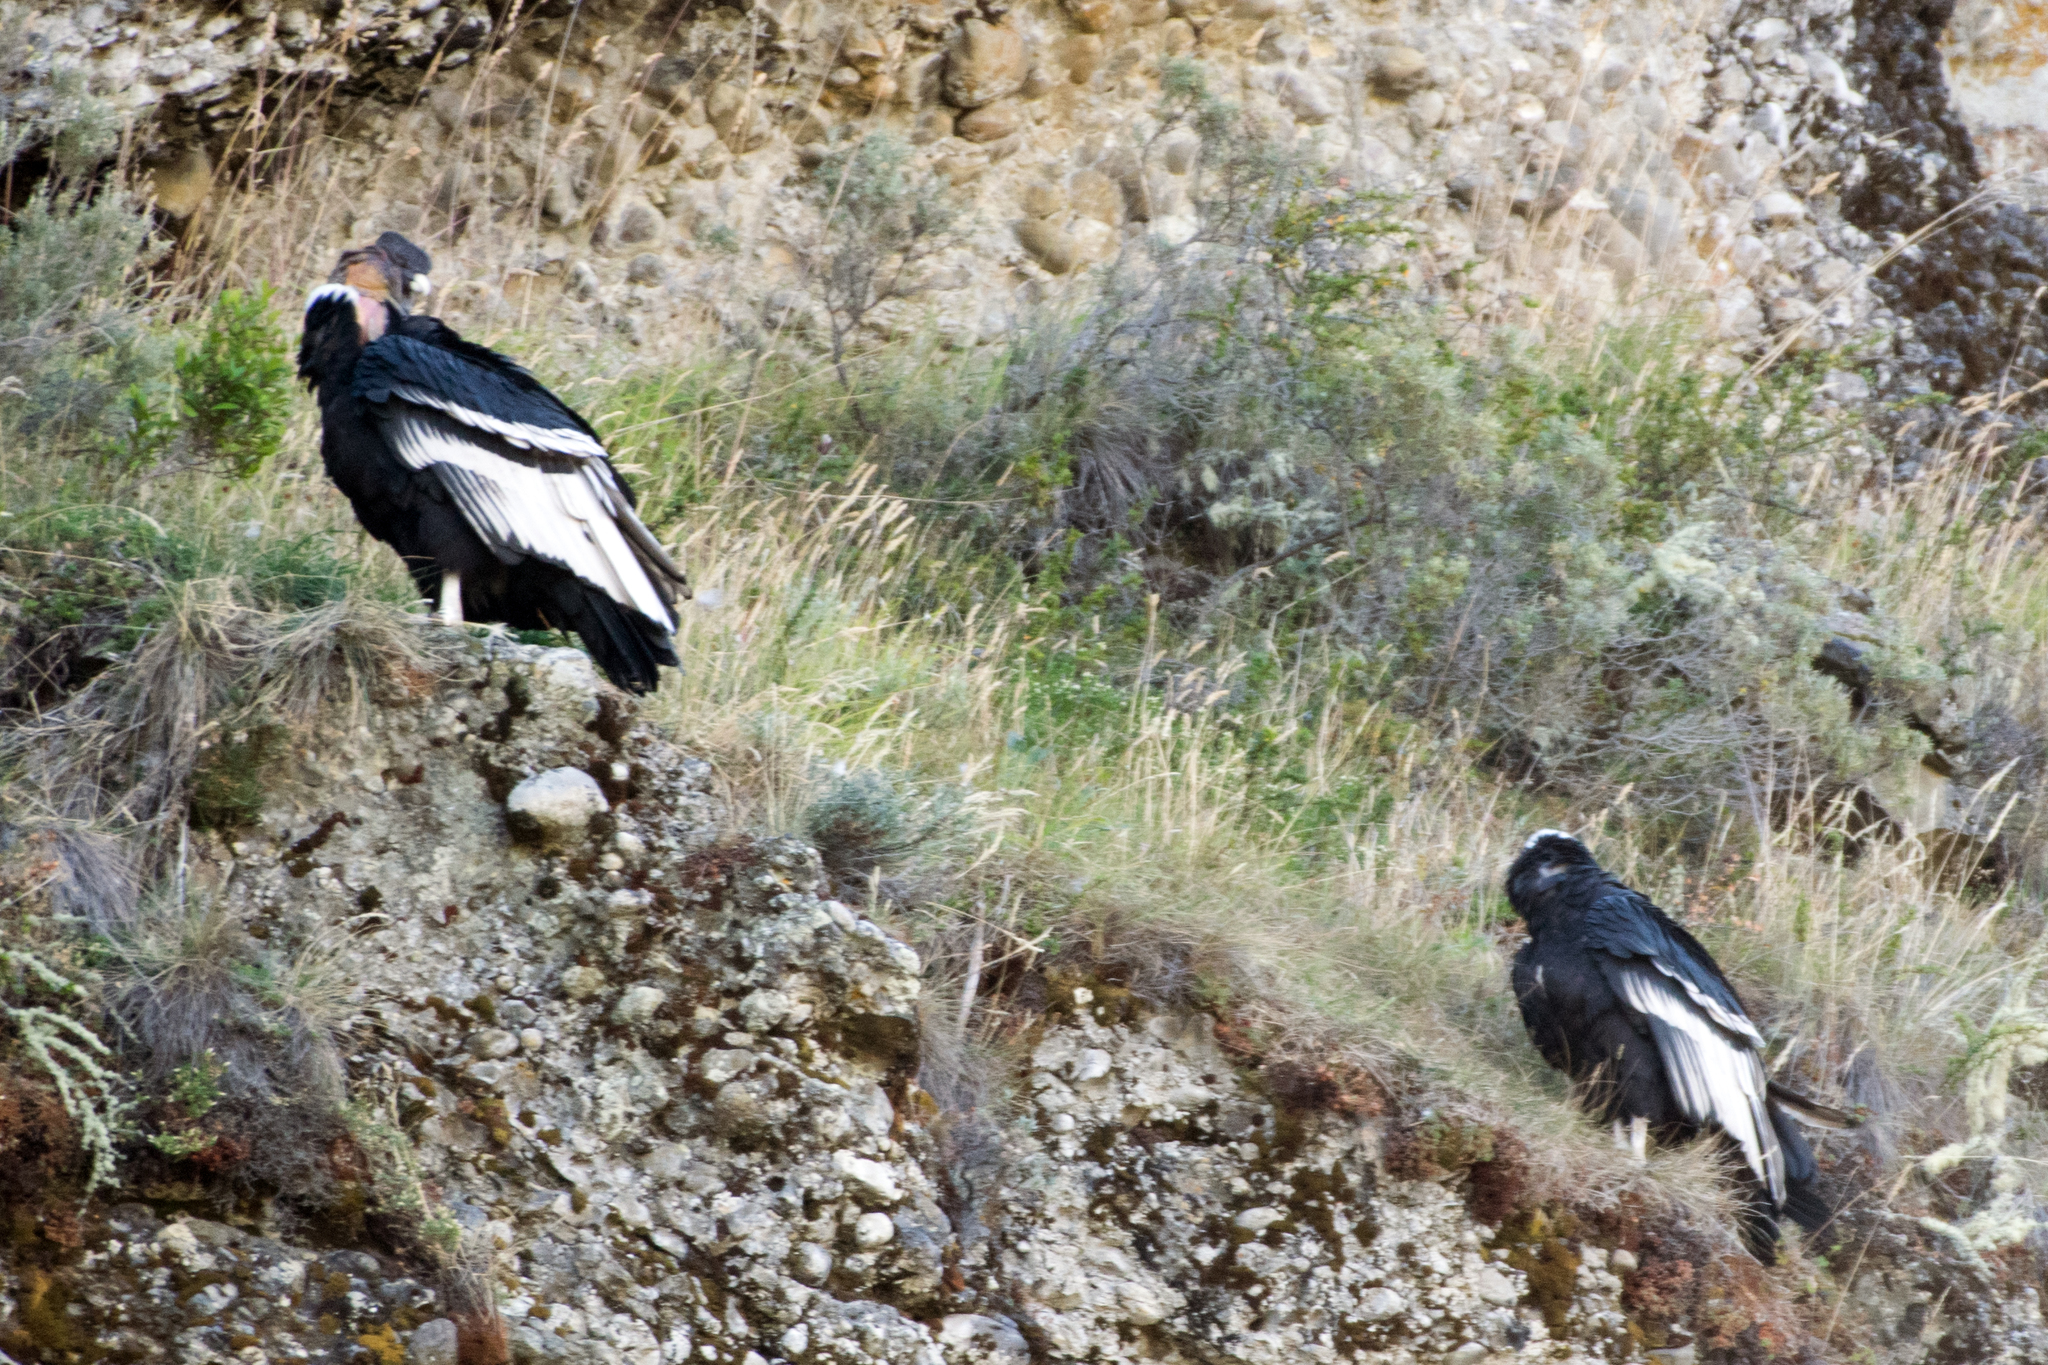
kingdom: Animalia
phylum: Chordata
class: Aves
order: Accipitriformes
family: Cathartidae
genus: Vultur
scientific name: Vultur gryphus
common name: Andean condor
